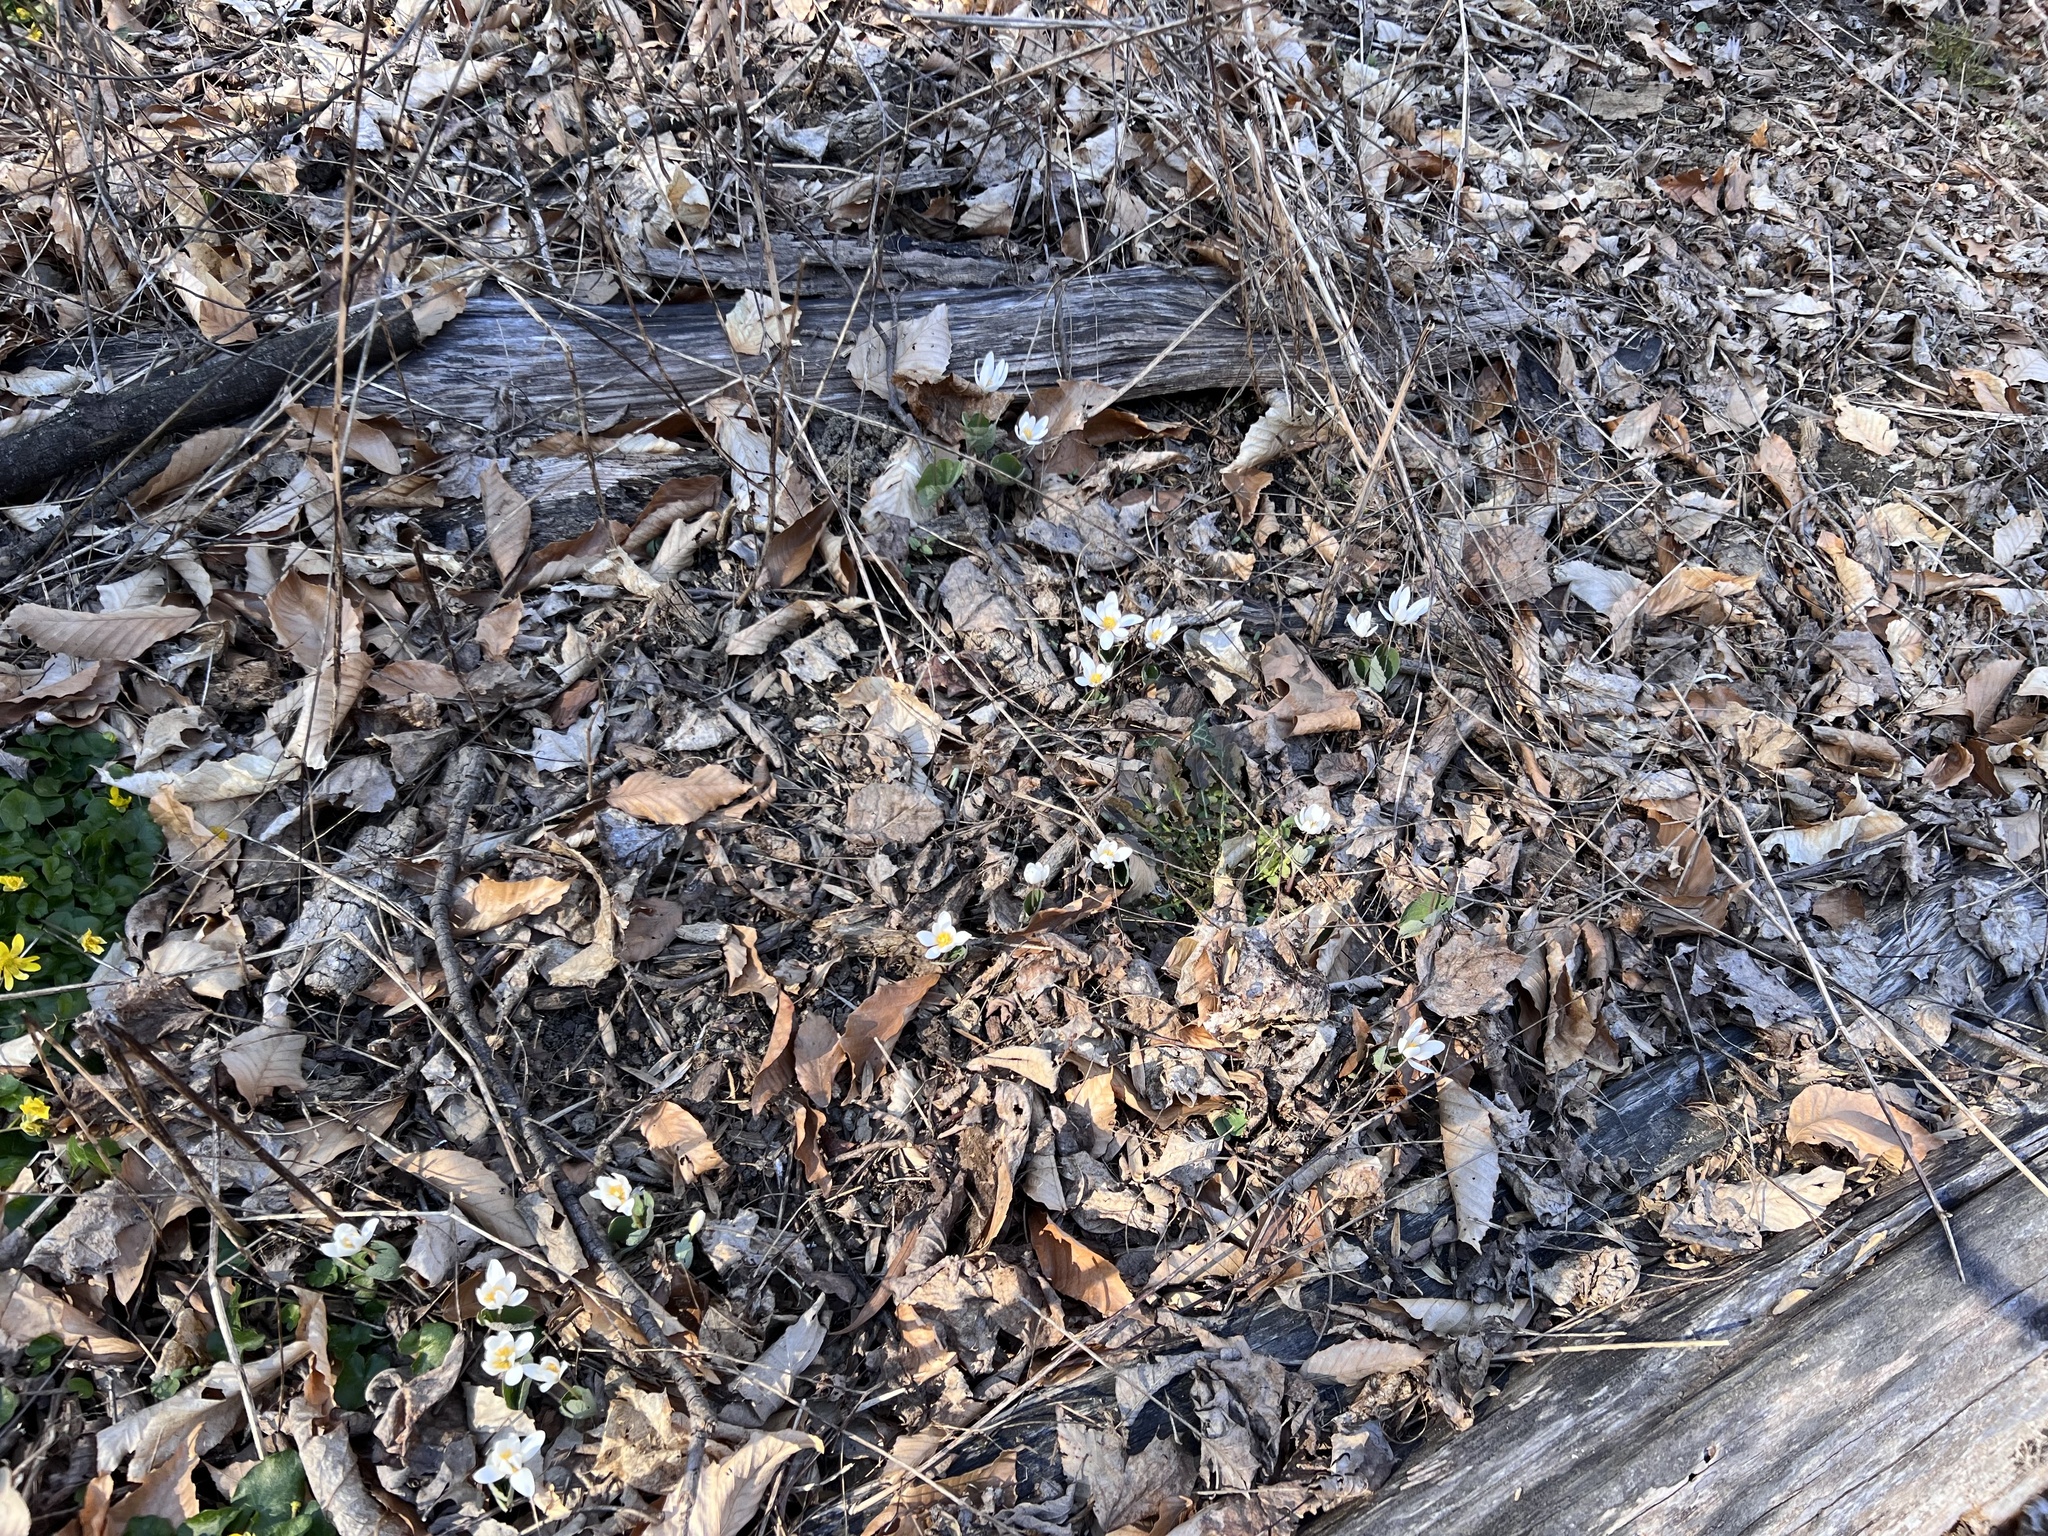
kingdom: Plantae
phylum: Tracheophyta
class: Magnoliopsida
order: Ranunculales
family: Papaveraceae
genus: Sanguinaria
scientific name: Sanguinaria canadensis
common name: Bloodroot
